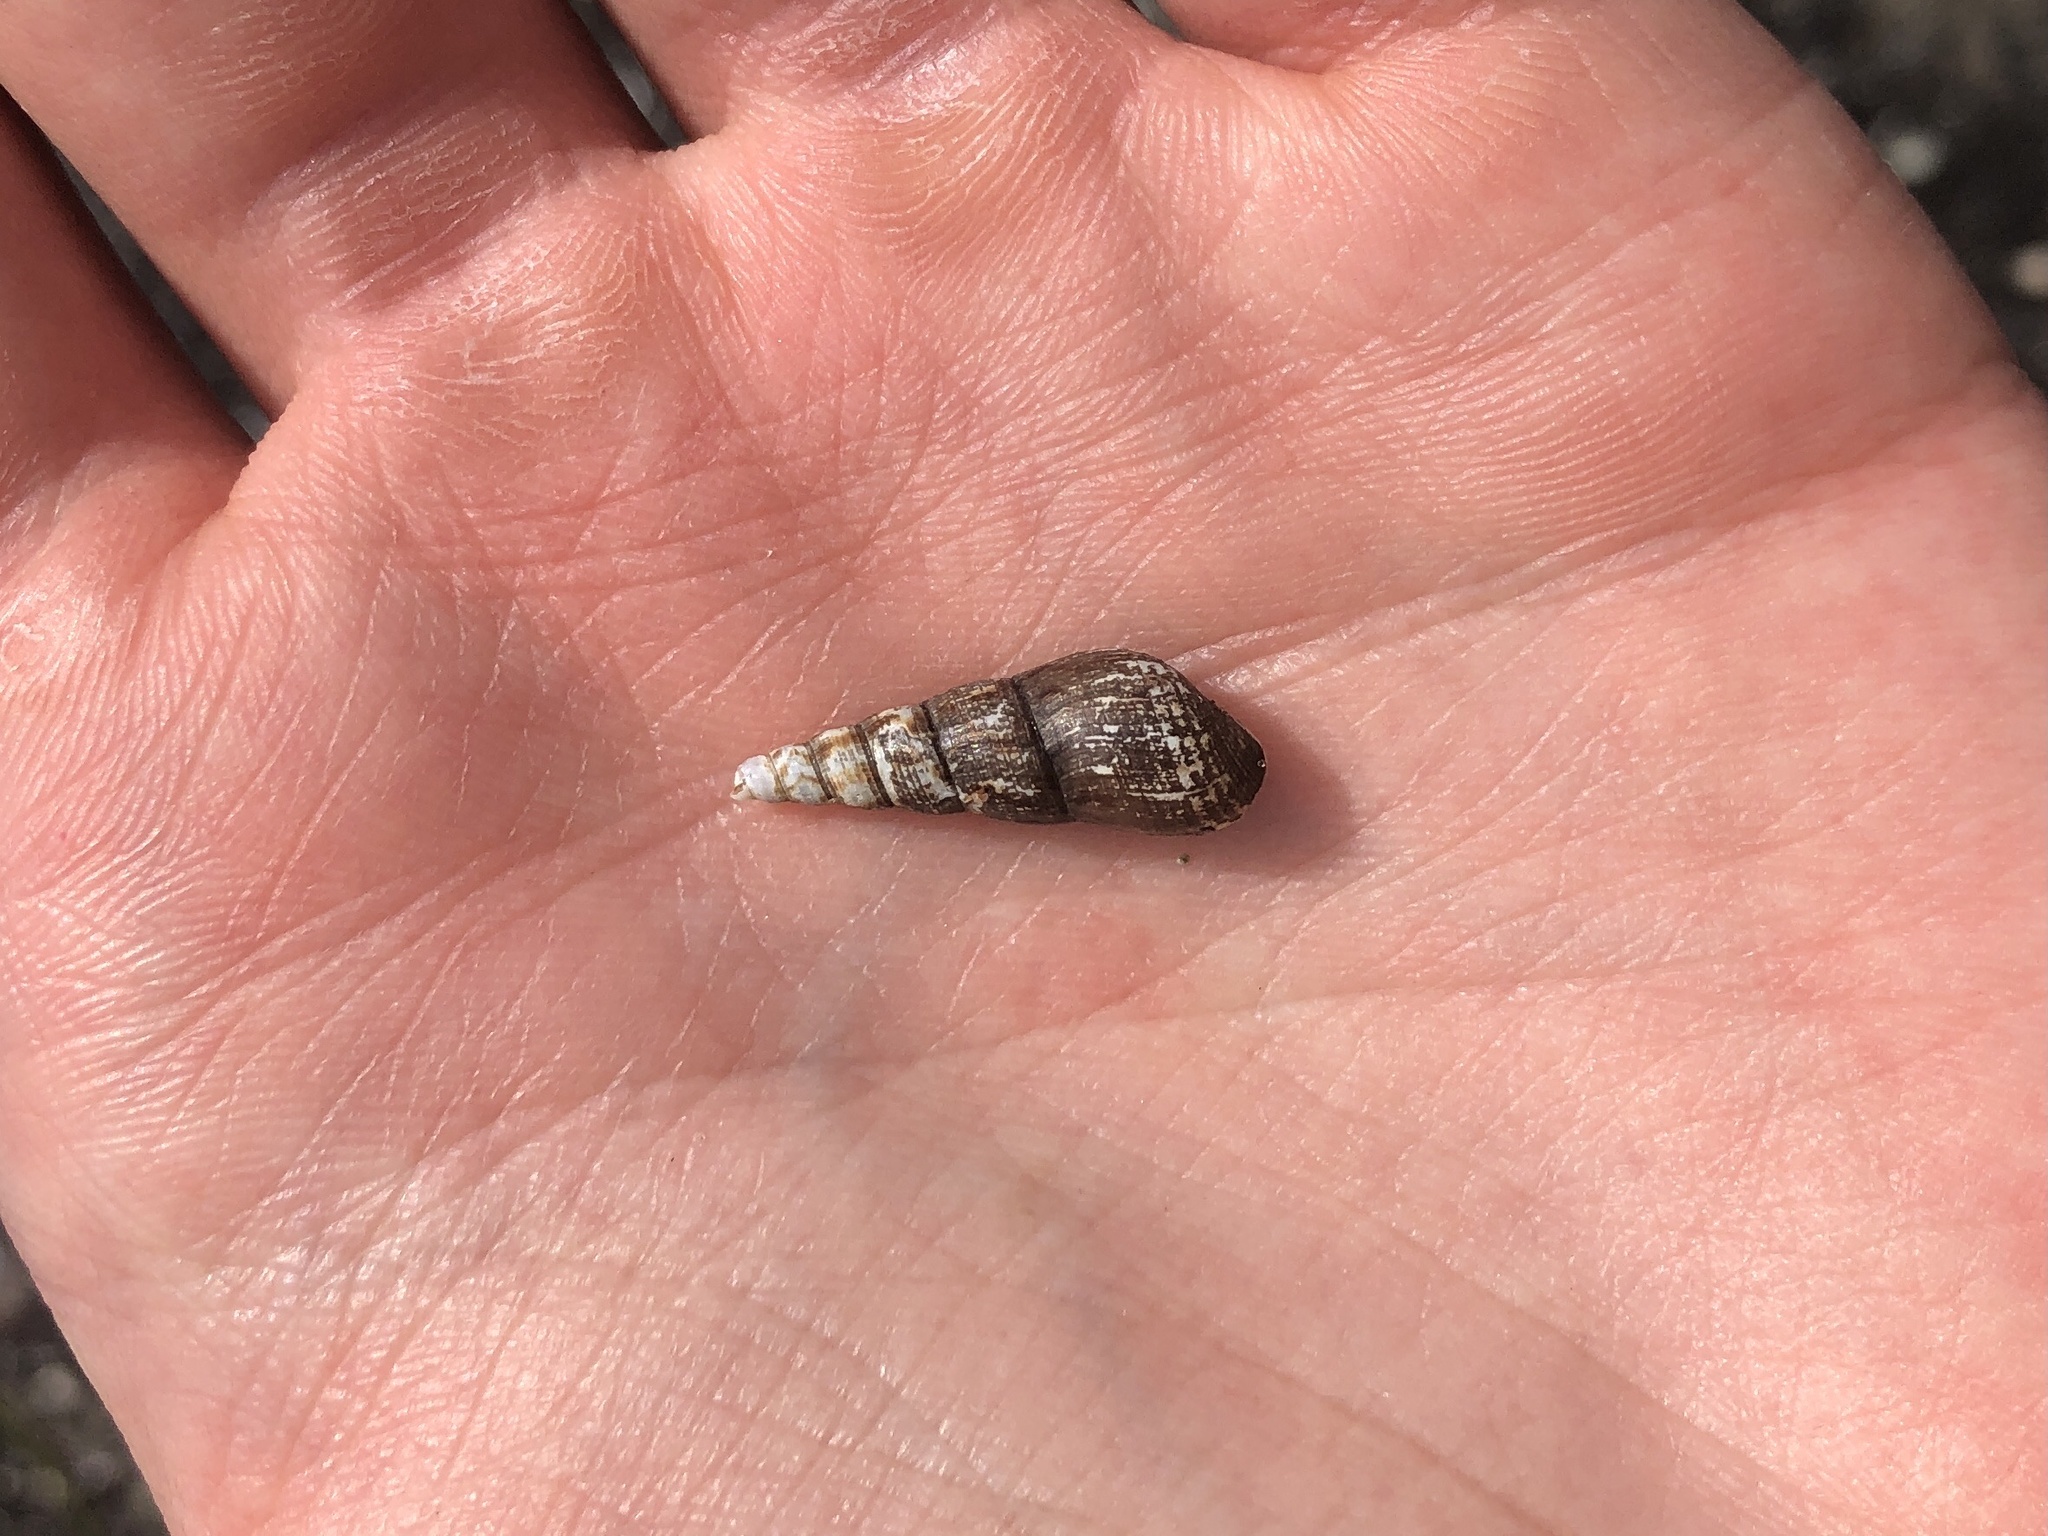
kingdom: Animalia
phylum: Mollusca
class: Gastropoda
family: Thiaridae
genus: Melanoides
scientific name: Melanoides tuberculata
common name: Red-rim melania
